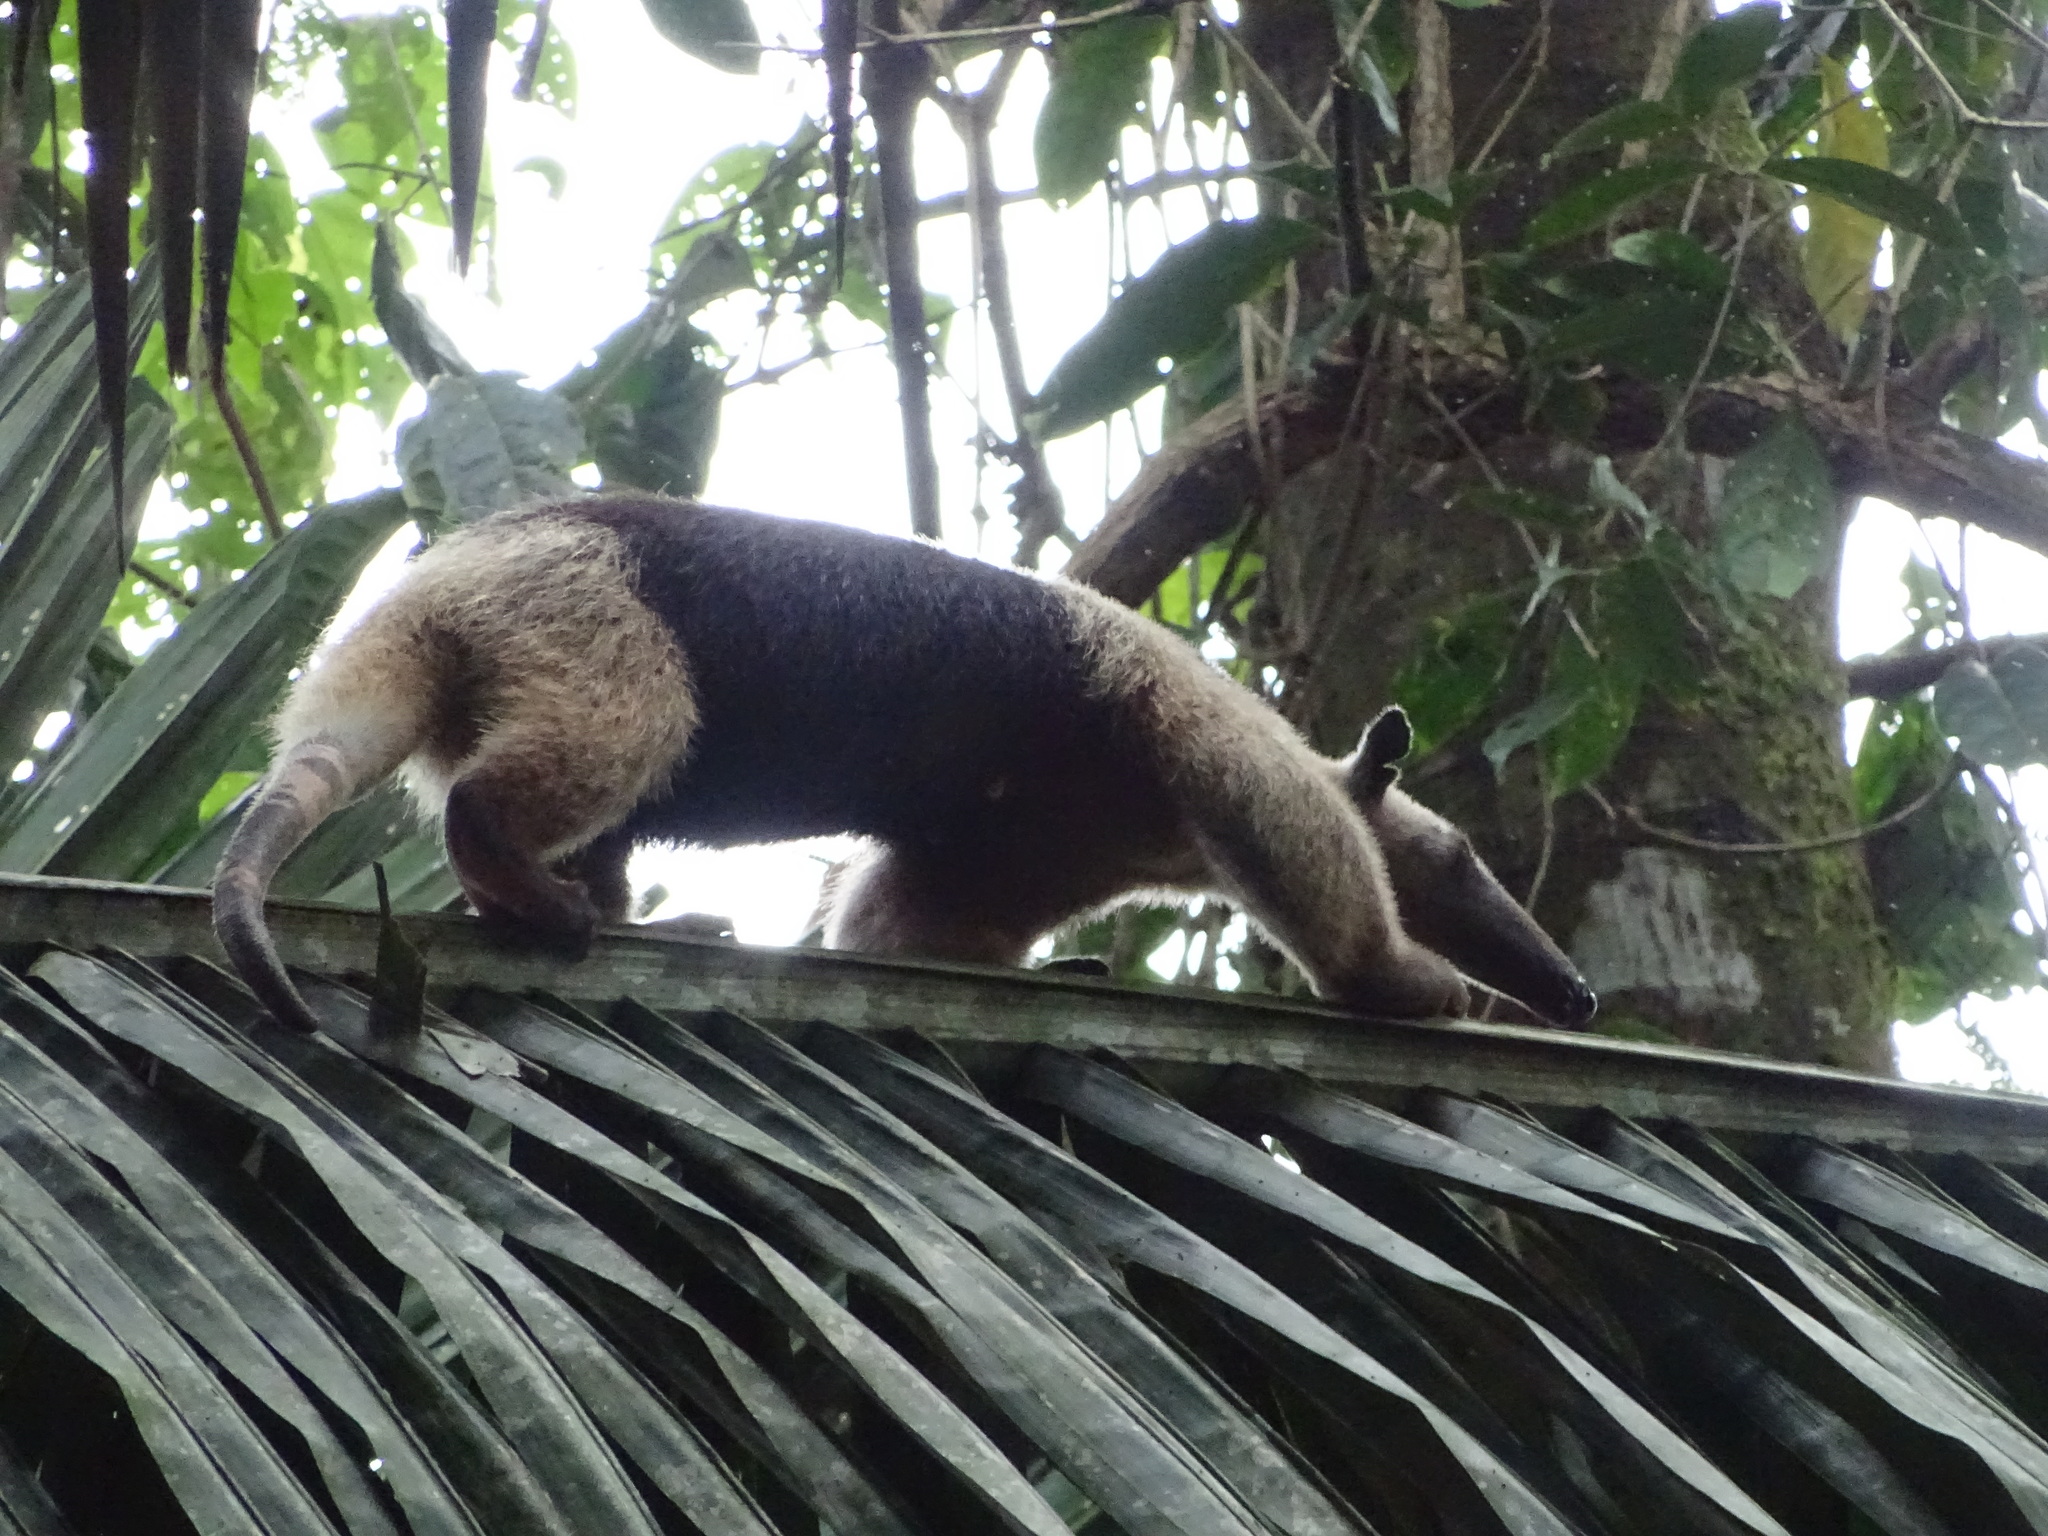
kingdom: Animalia
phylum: Chordata
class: Mammalia
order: Pilosa
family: Myrmecophagidae
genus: Tamandua
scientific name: Tamandua mexicana
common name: Northern tamandua
